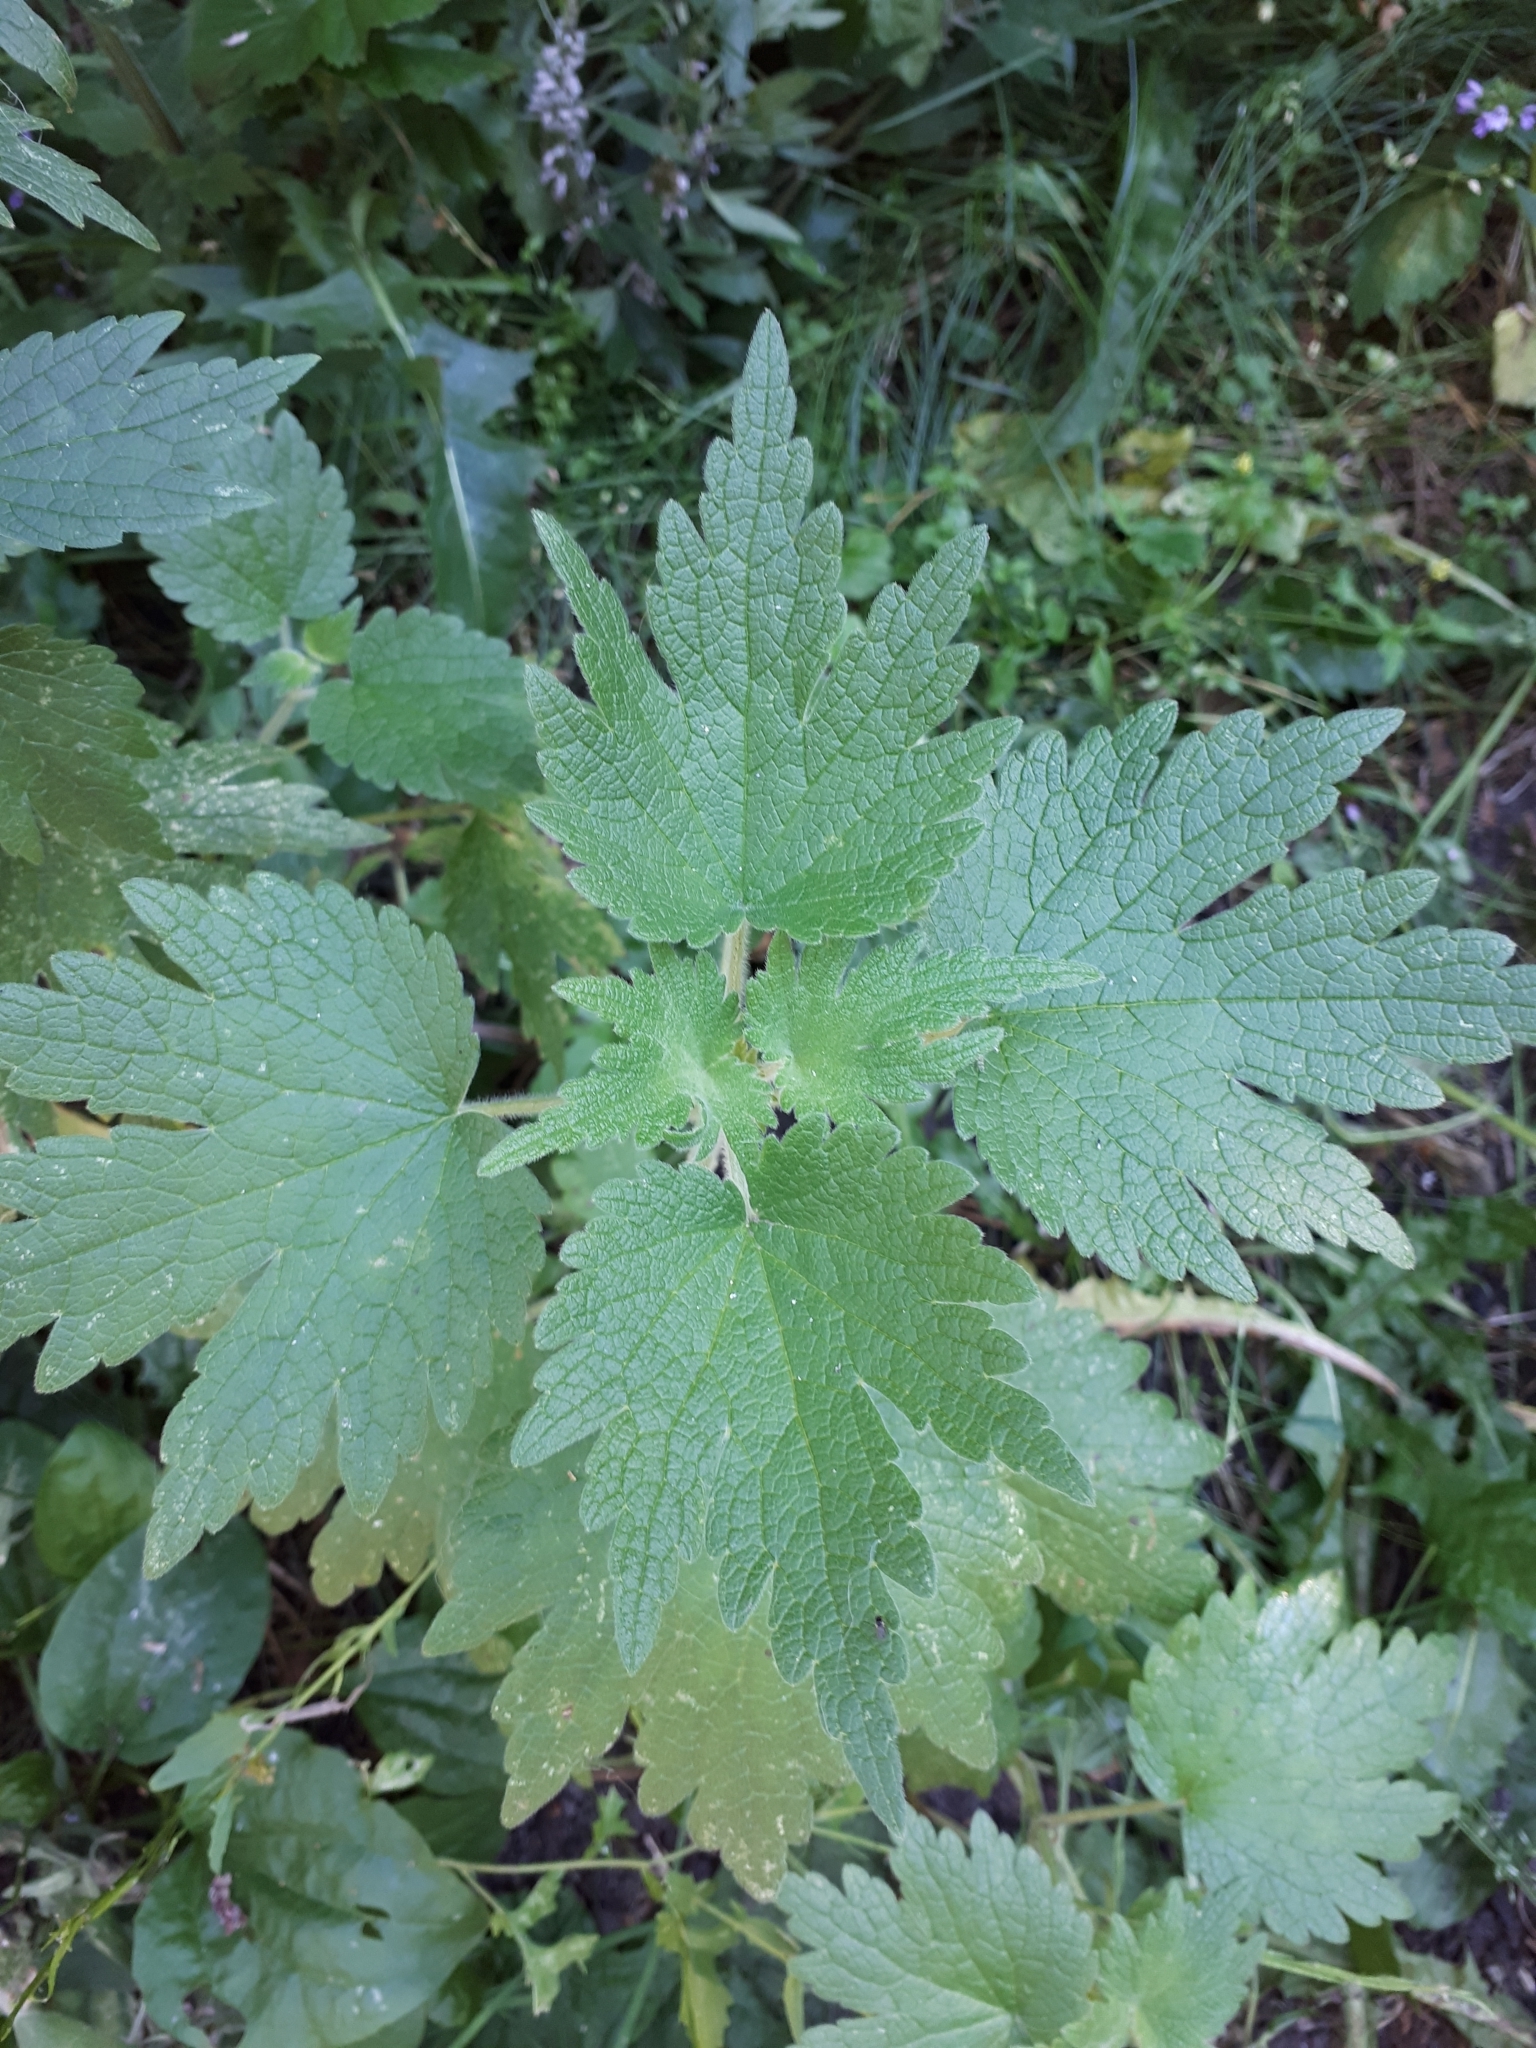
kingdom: Plantae
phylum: Tracheophyta
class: Magnoliopsida
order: Lamiales
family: Lamiaceae
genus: Leonurus
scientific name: Leonurus quinquelobatus
